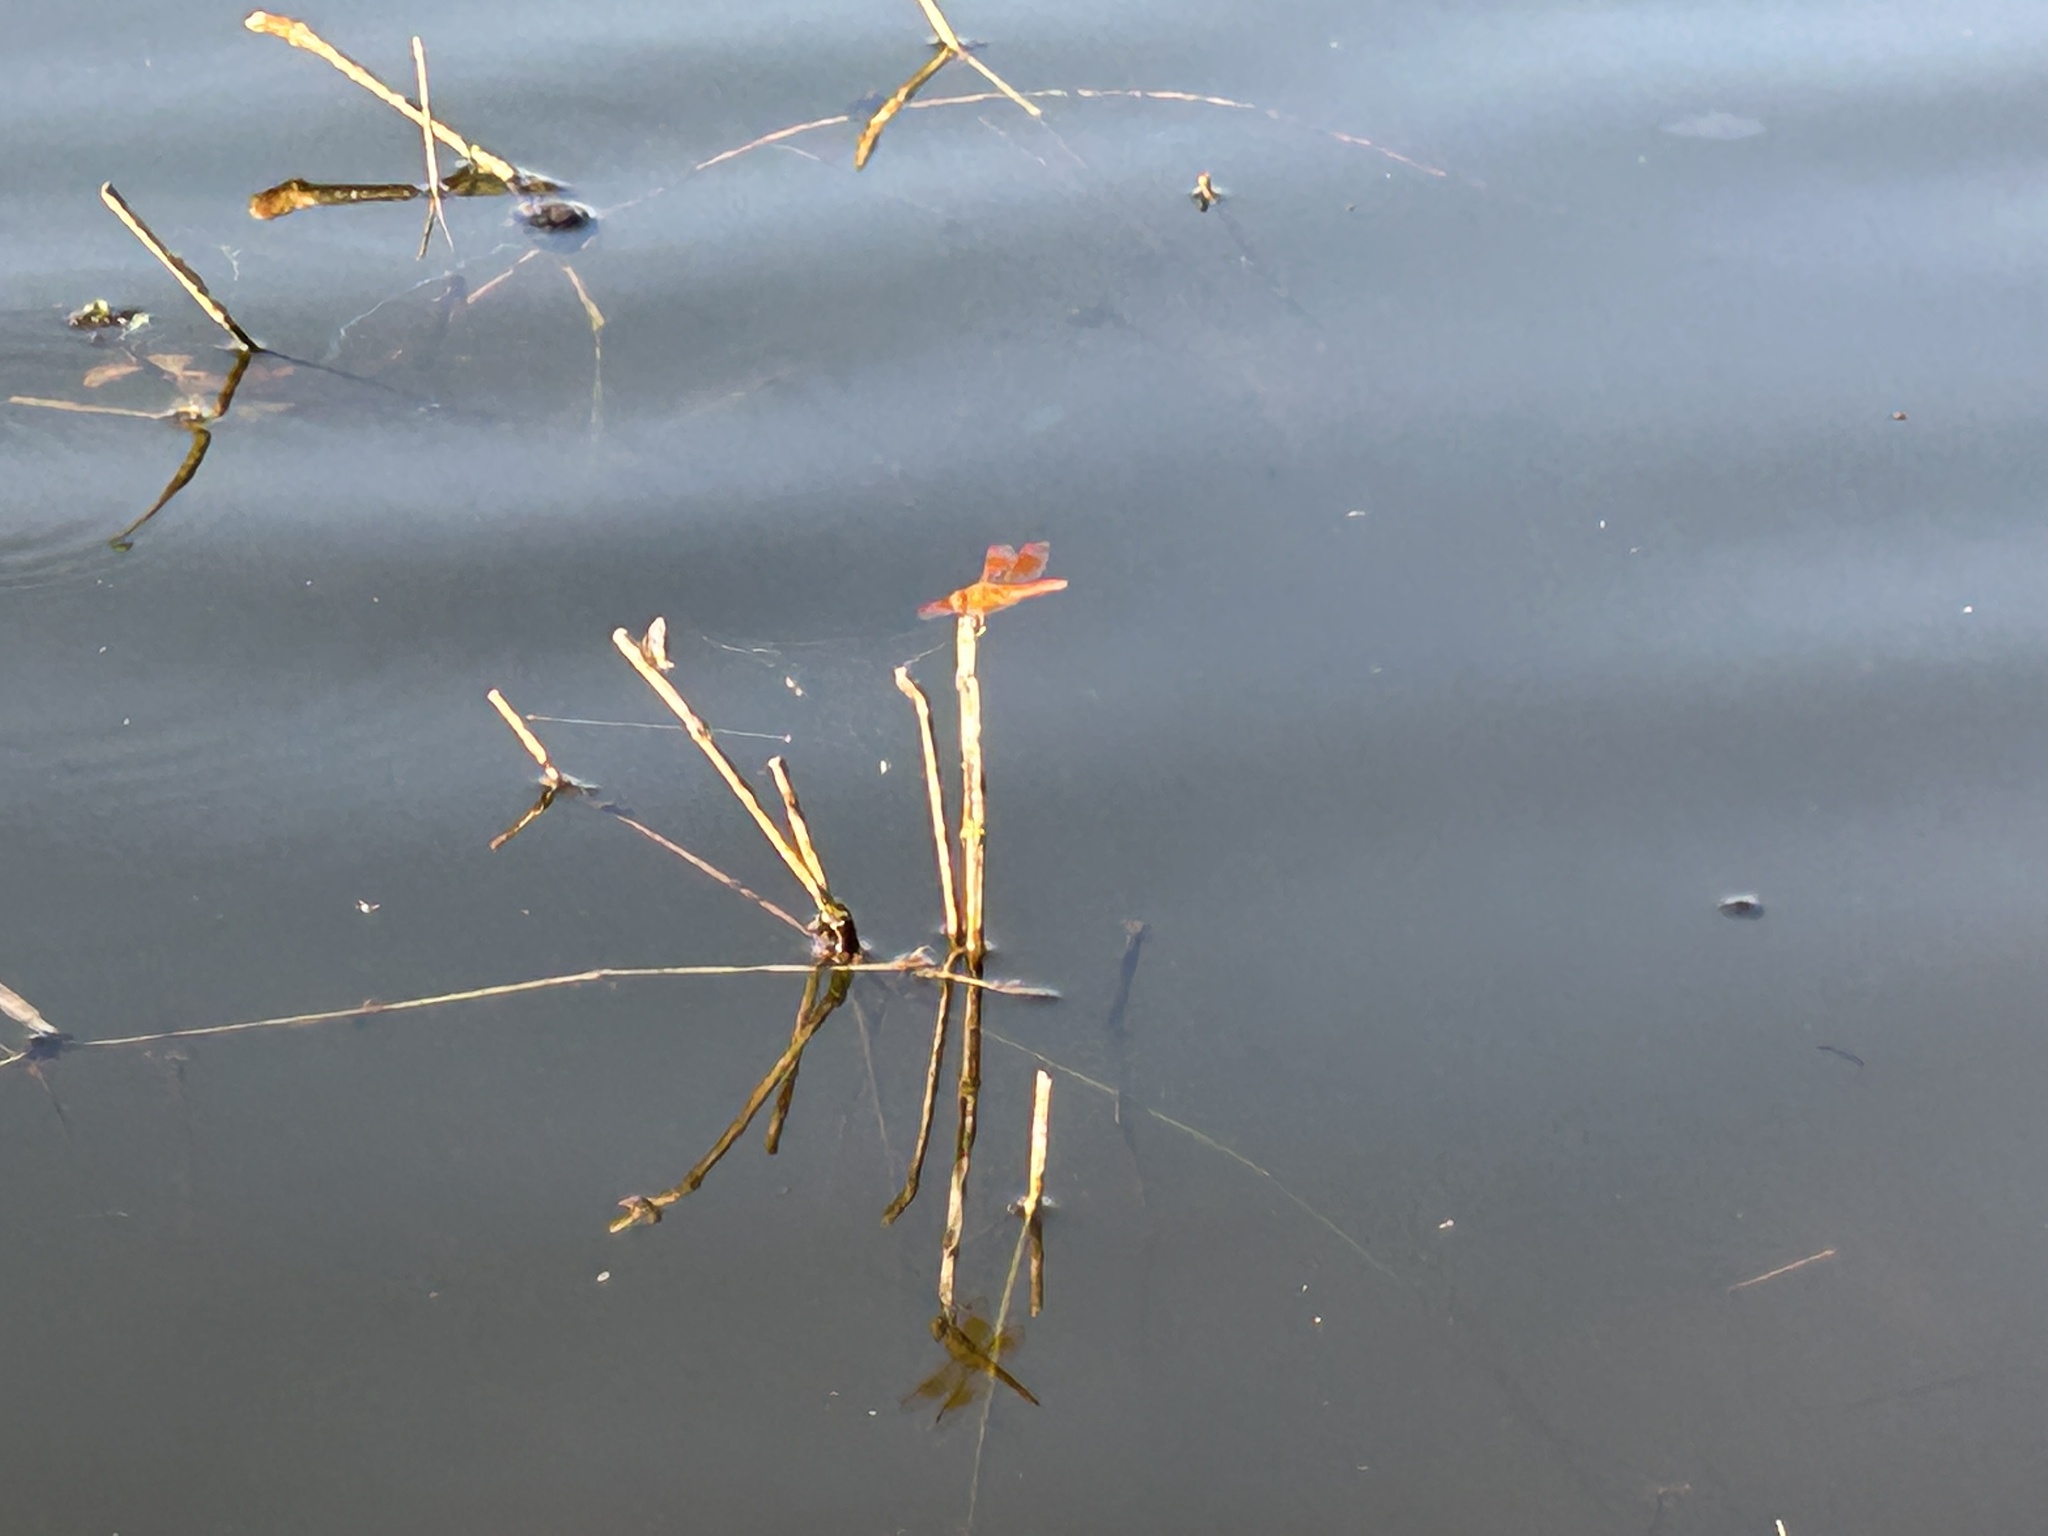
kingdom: Animalia
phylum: Arthropoda
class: Insecta
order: Odonata
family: Libellulidae
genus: Brachythemis
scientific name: Brachythemis contaminata
